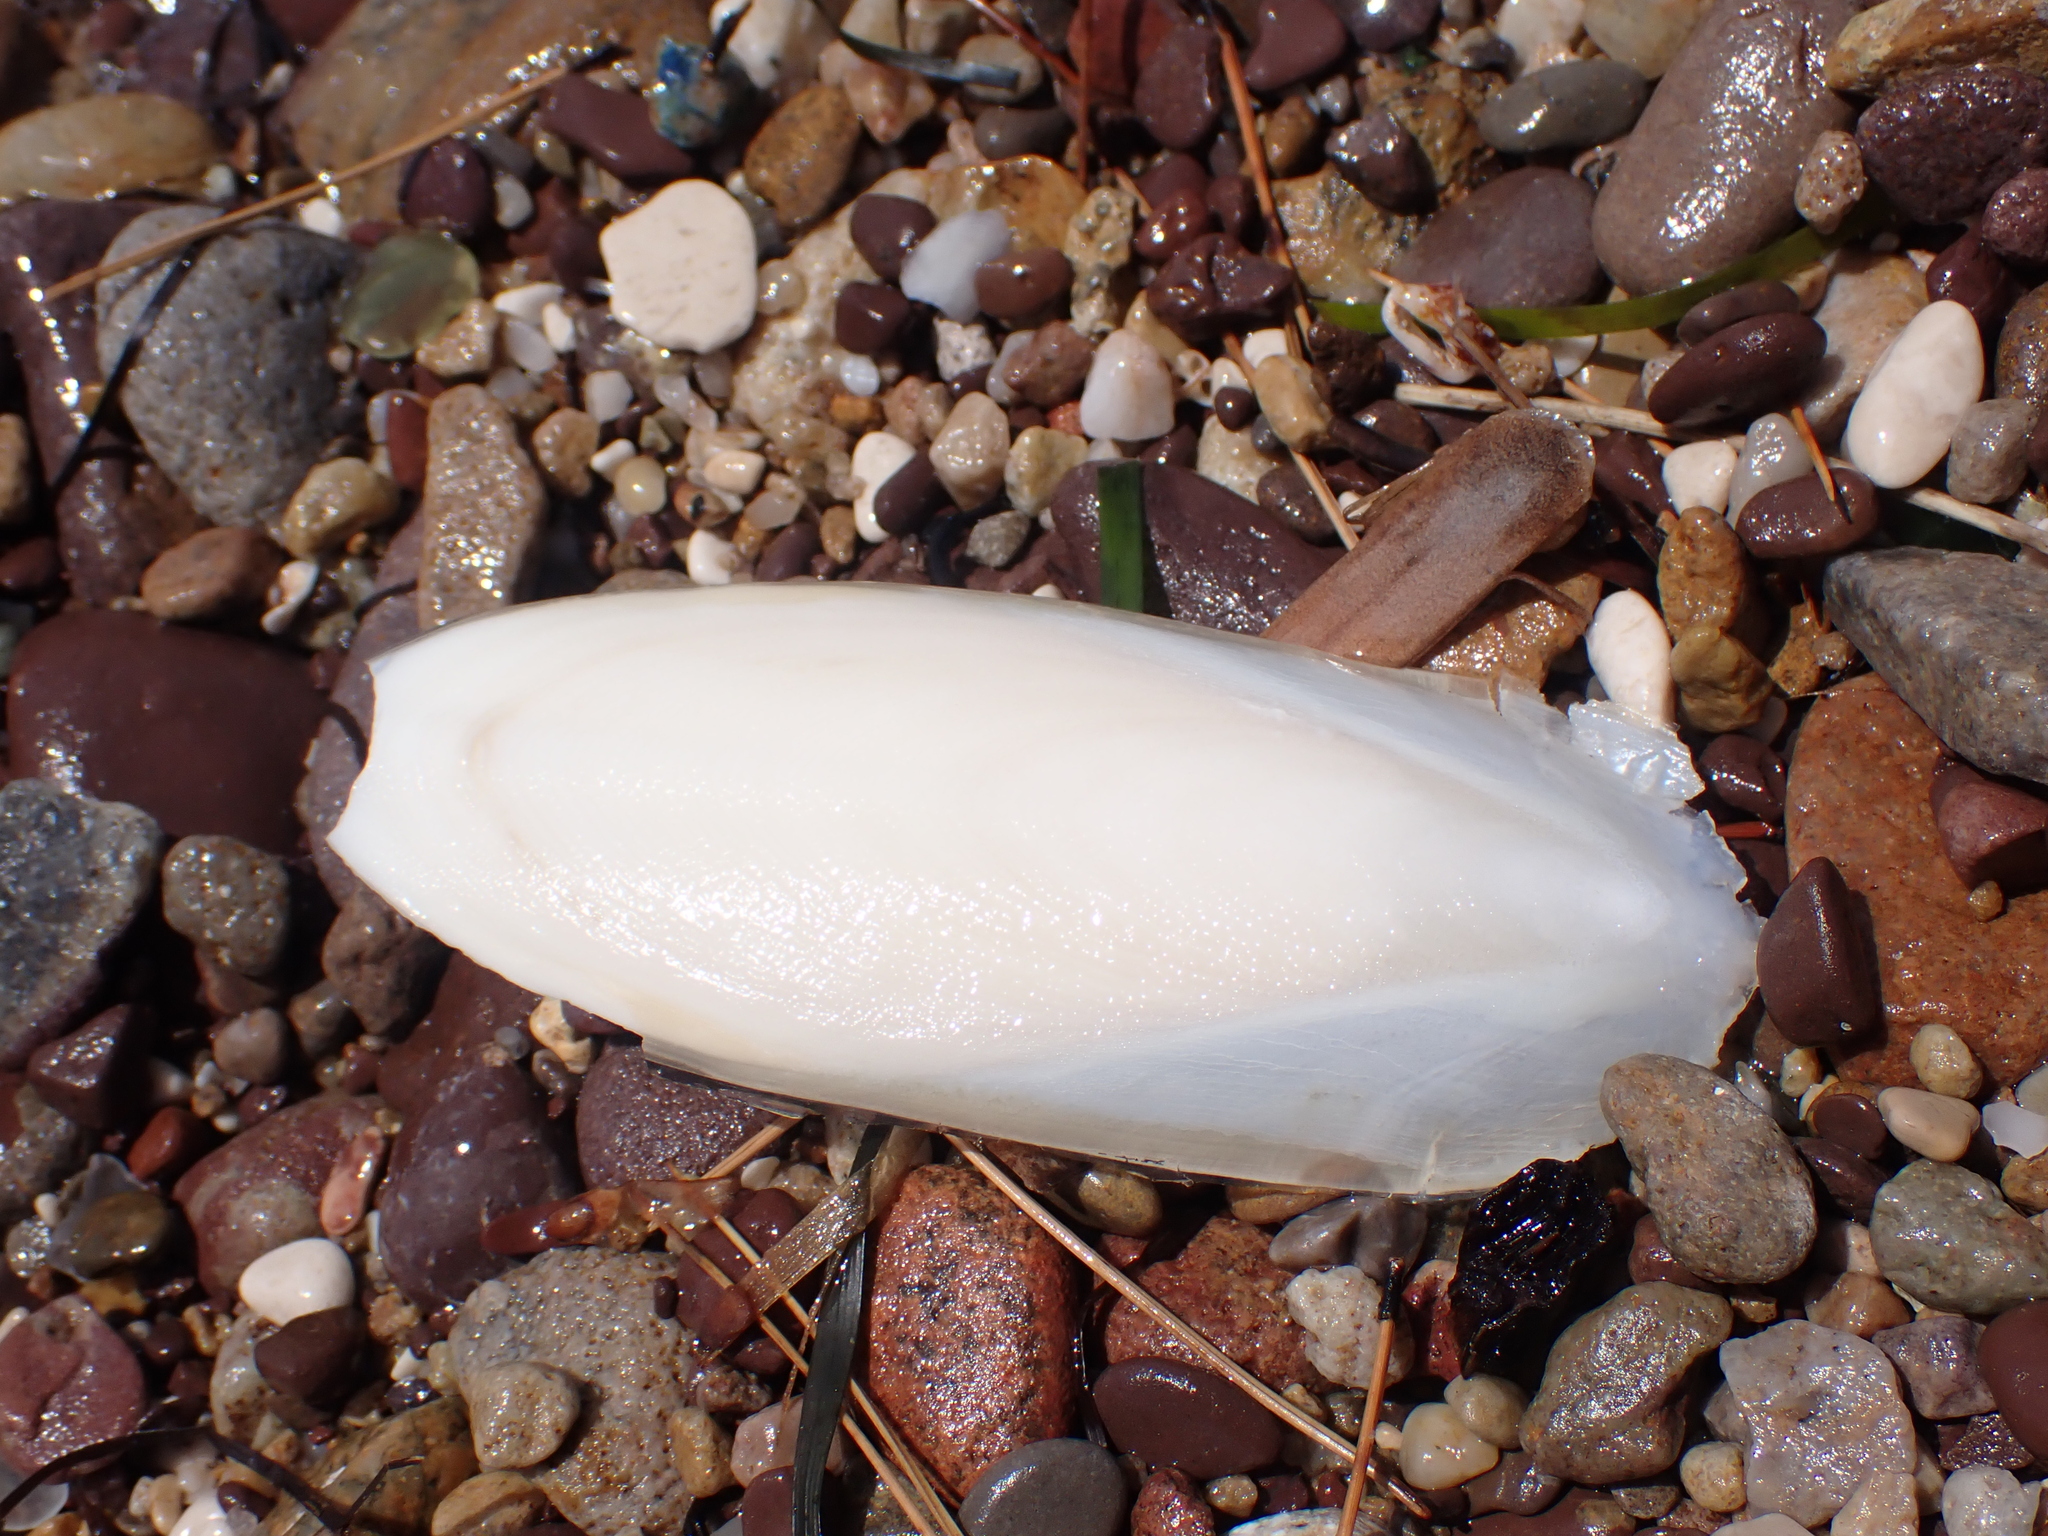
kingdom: Animalia
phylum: Mollusca
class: Cephalopoda
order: Sepiida
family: Sepiidae
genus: Sepia
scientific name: Sepia officinalis
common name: Common cuttlefish
